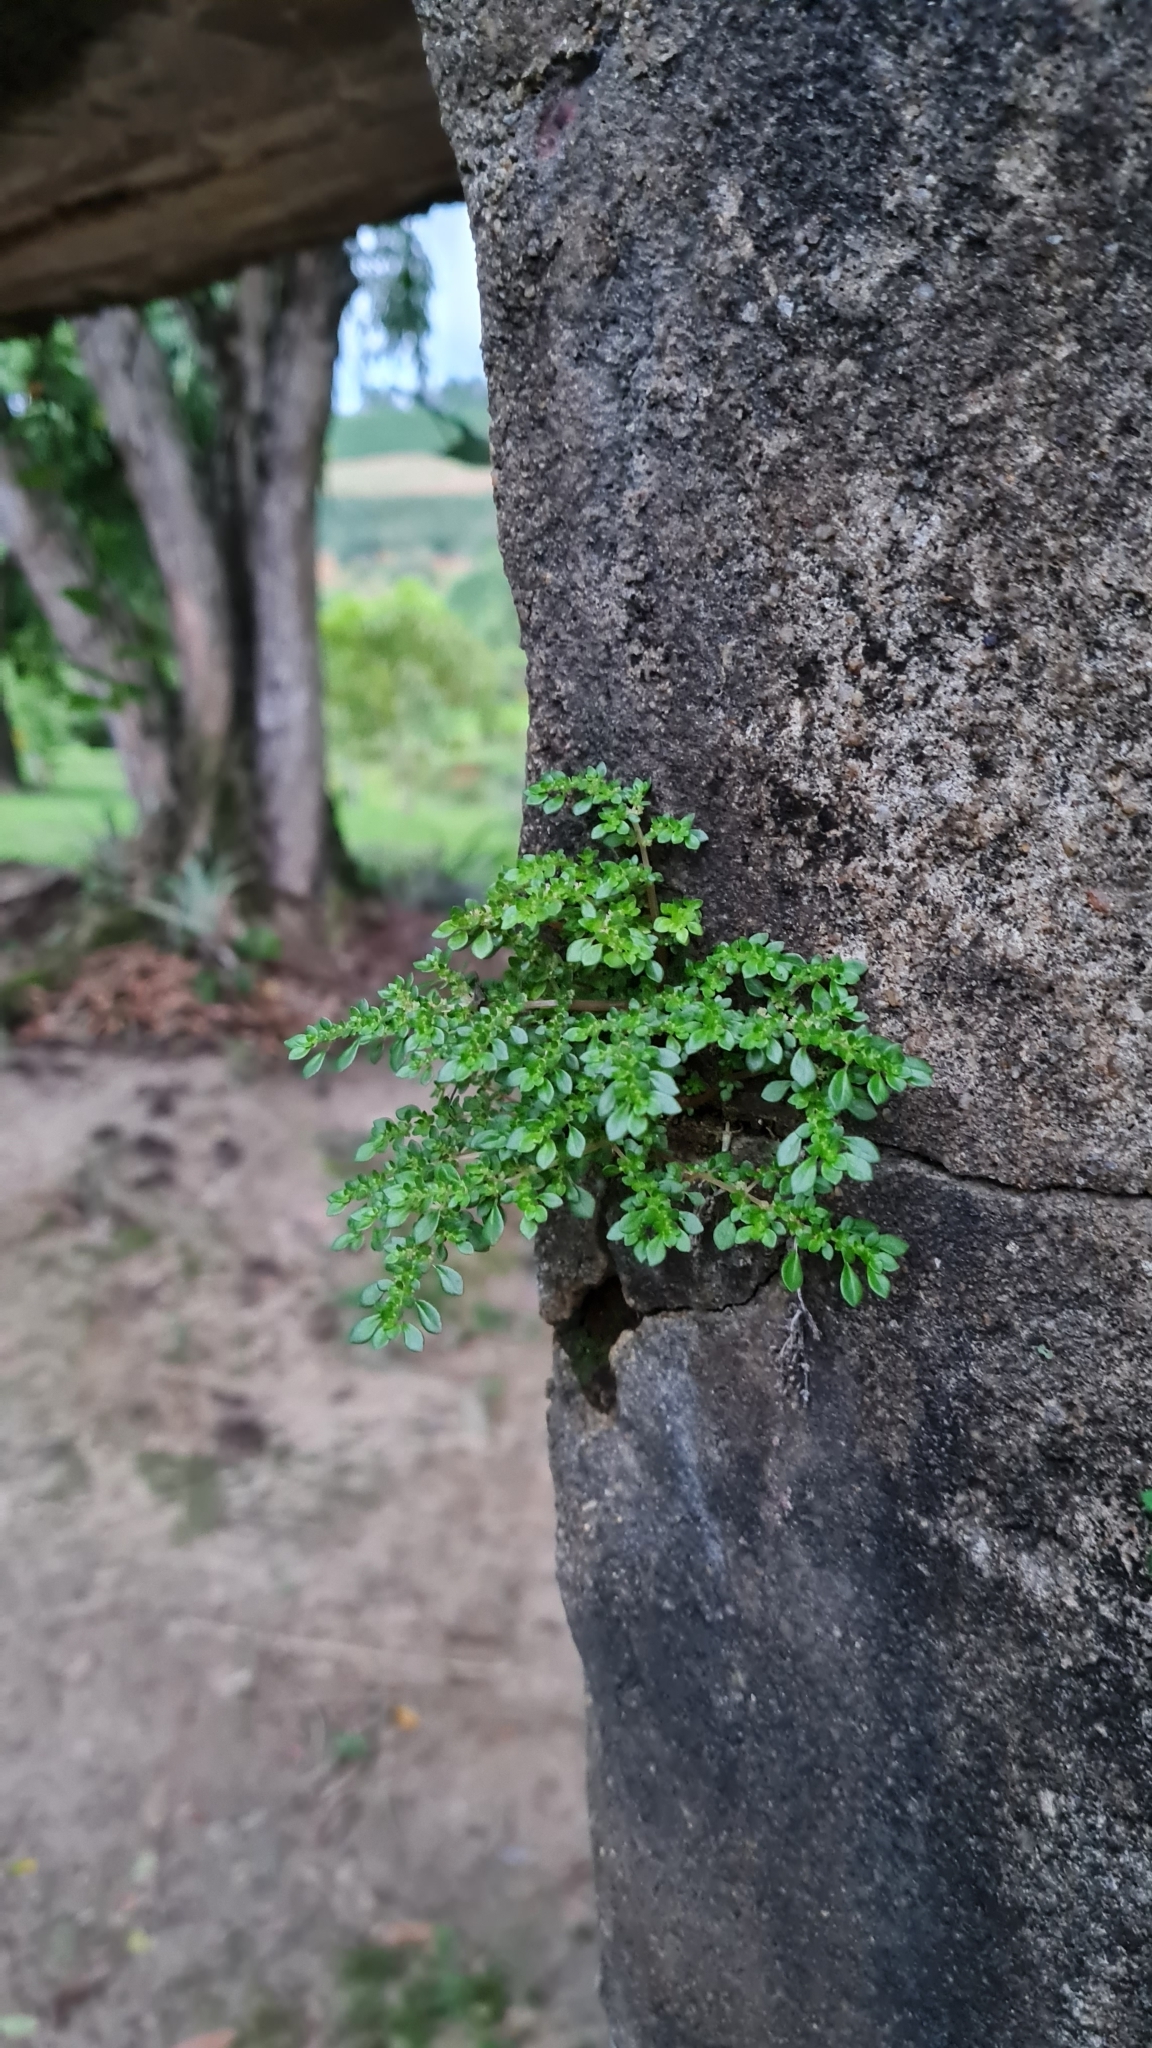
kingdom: Plantae
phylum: Tracheophyta
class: Magnoliopsida
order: Rosales
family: Urticaceae
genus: Pilea
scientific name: Pilea microphylla
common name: Artillery-plant
